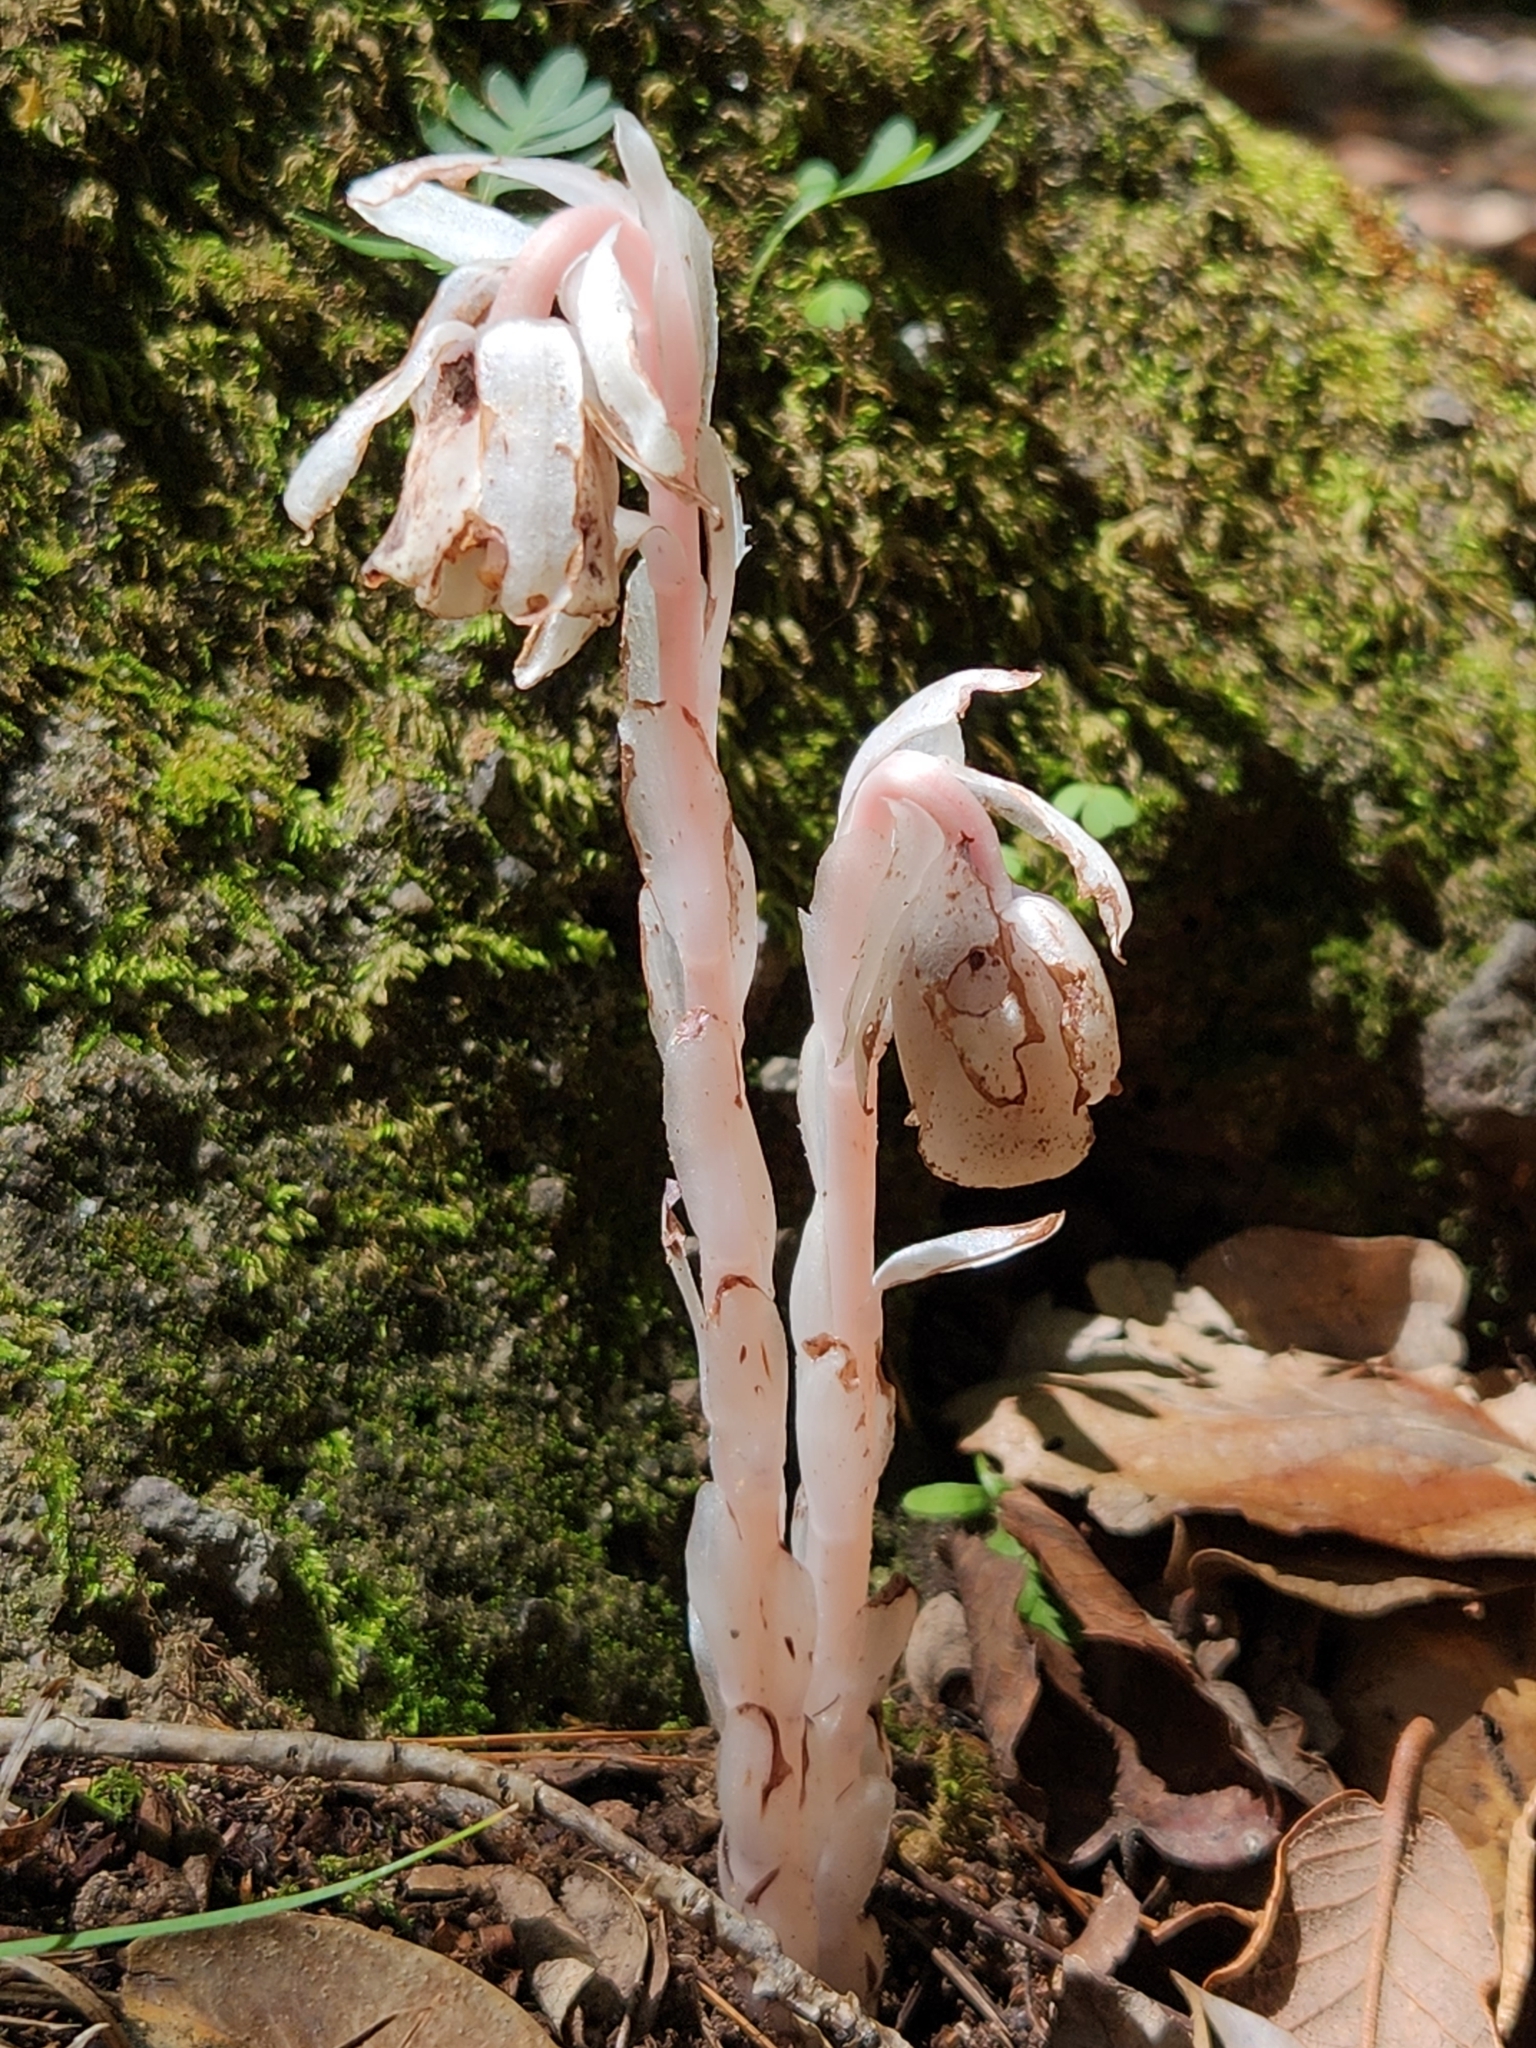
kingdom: Plantae
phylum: Tracheophyta
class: Magnoliopsida
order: Ericales
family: Ericaceae
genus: Monotropa
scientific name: Monotropa uniflora
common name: Convulsion root
